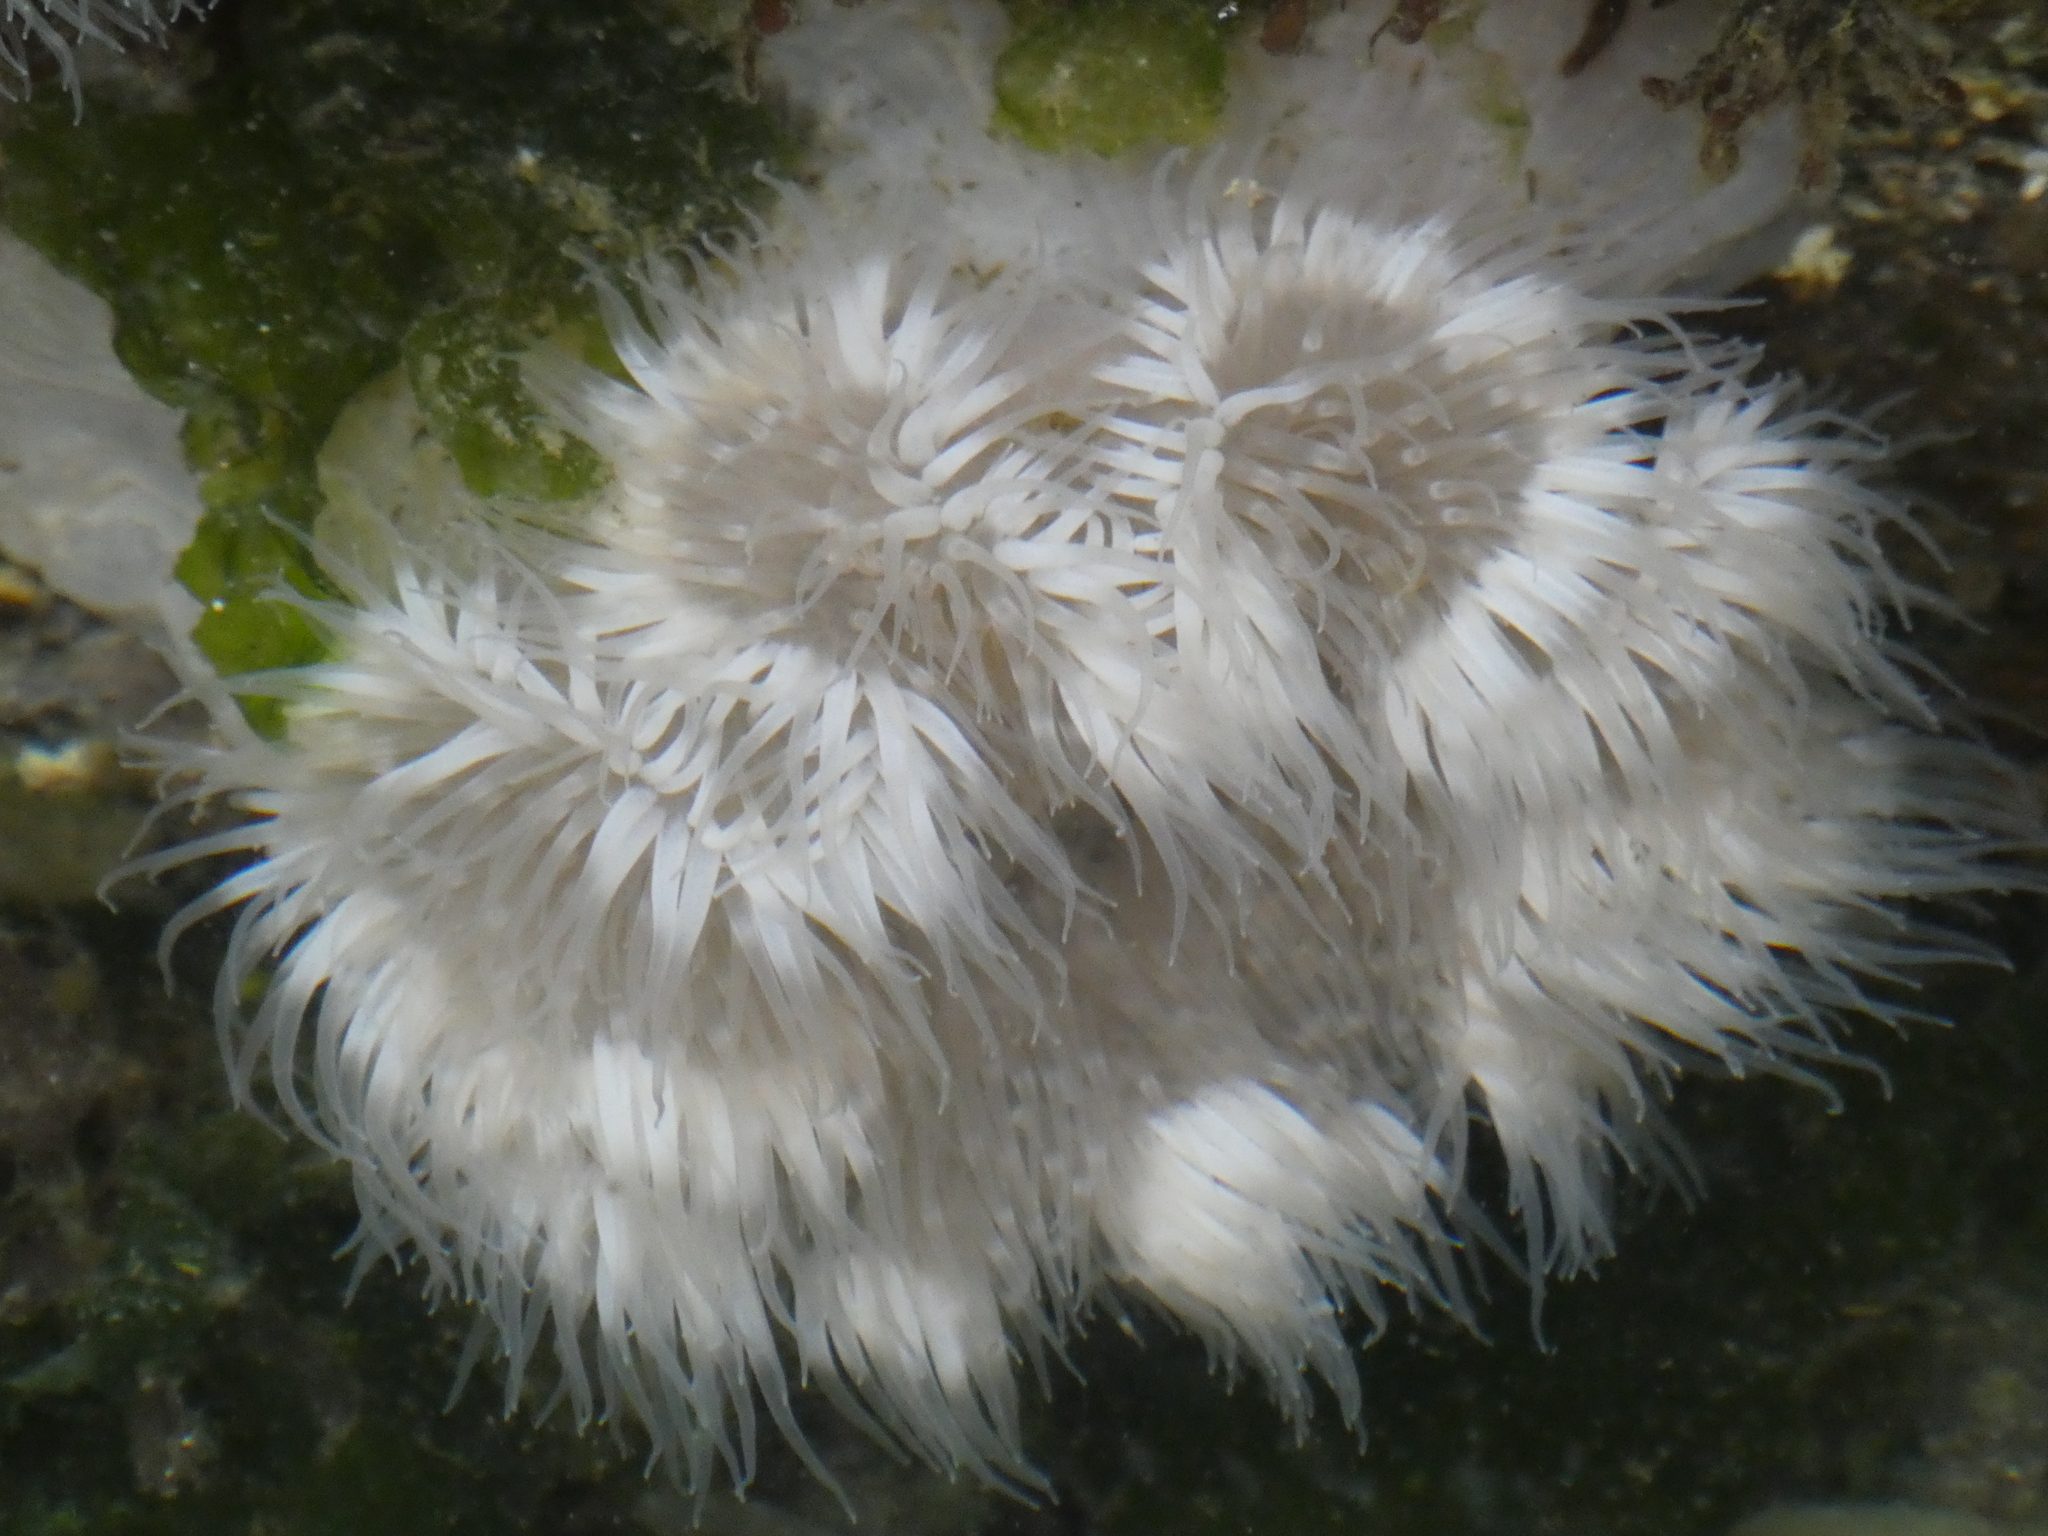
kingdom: Animalia
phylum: Cnidaria
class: Anthozoa
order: Actiniaria
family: Metridiidae
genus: Metridium
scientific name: Metridium senile
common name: Clonal plumose anemone
